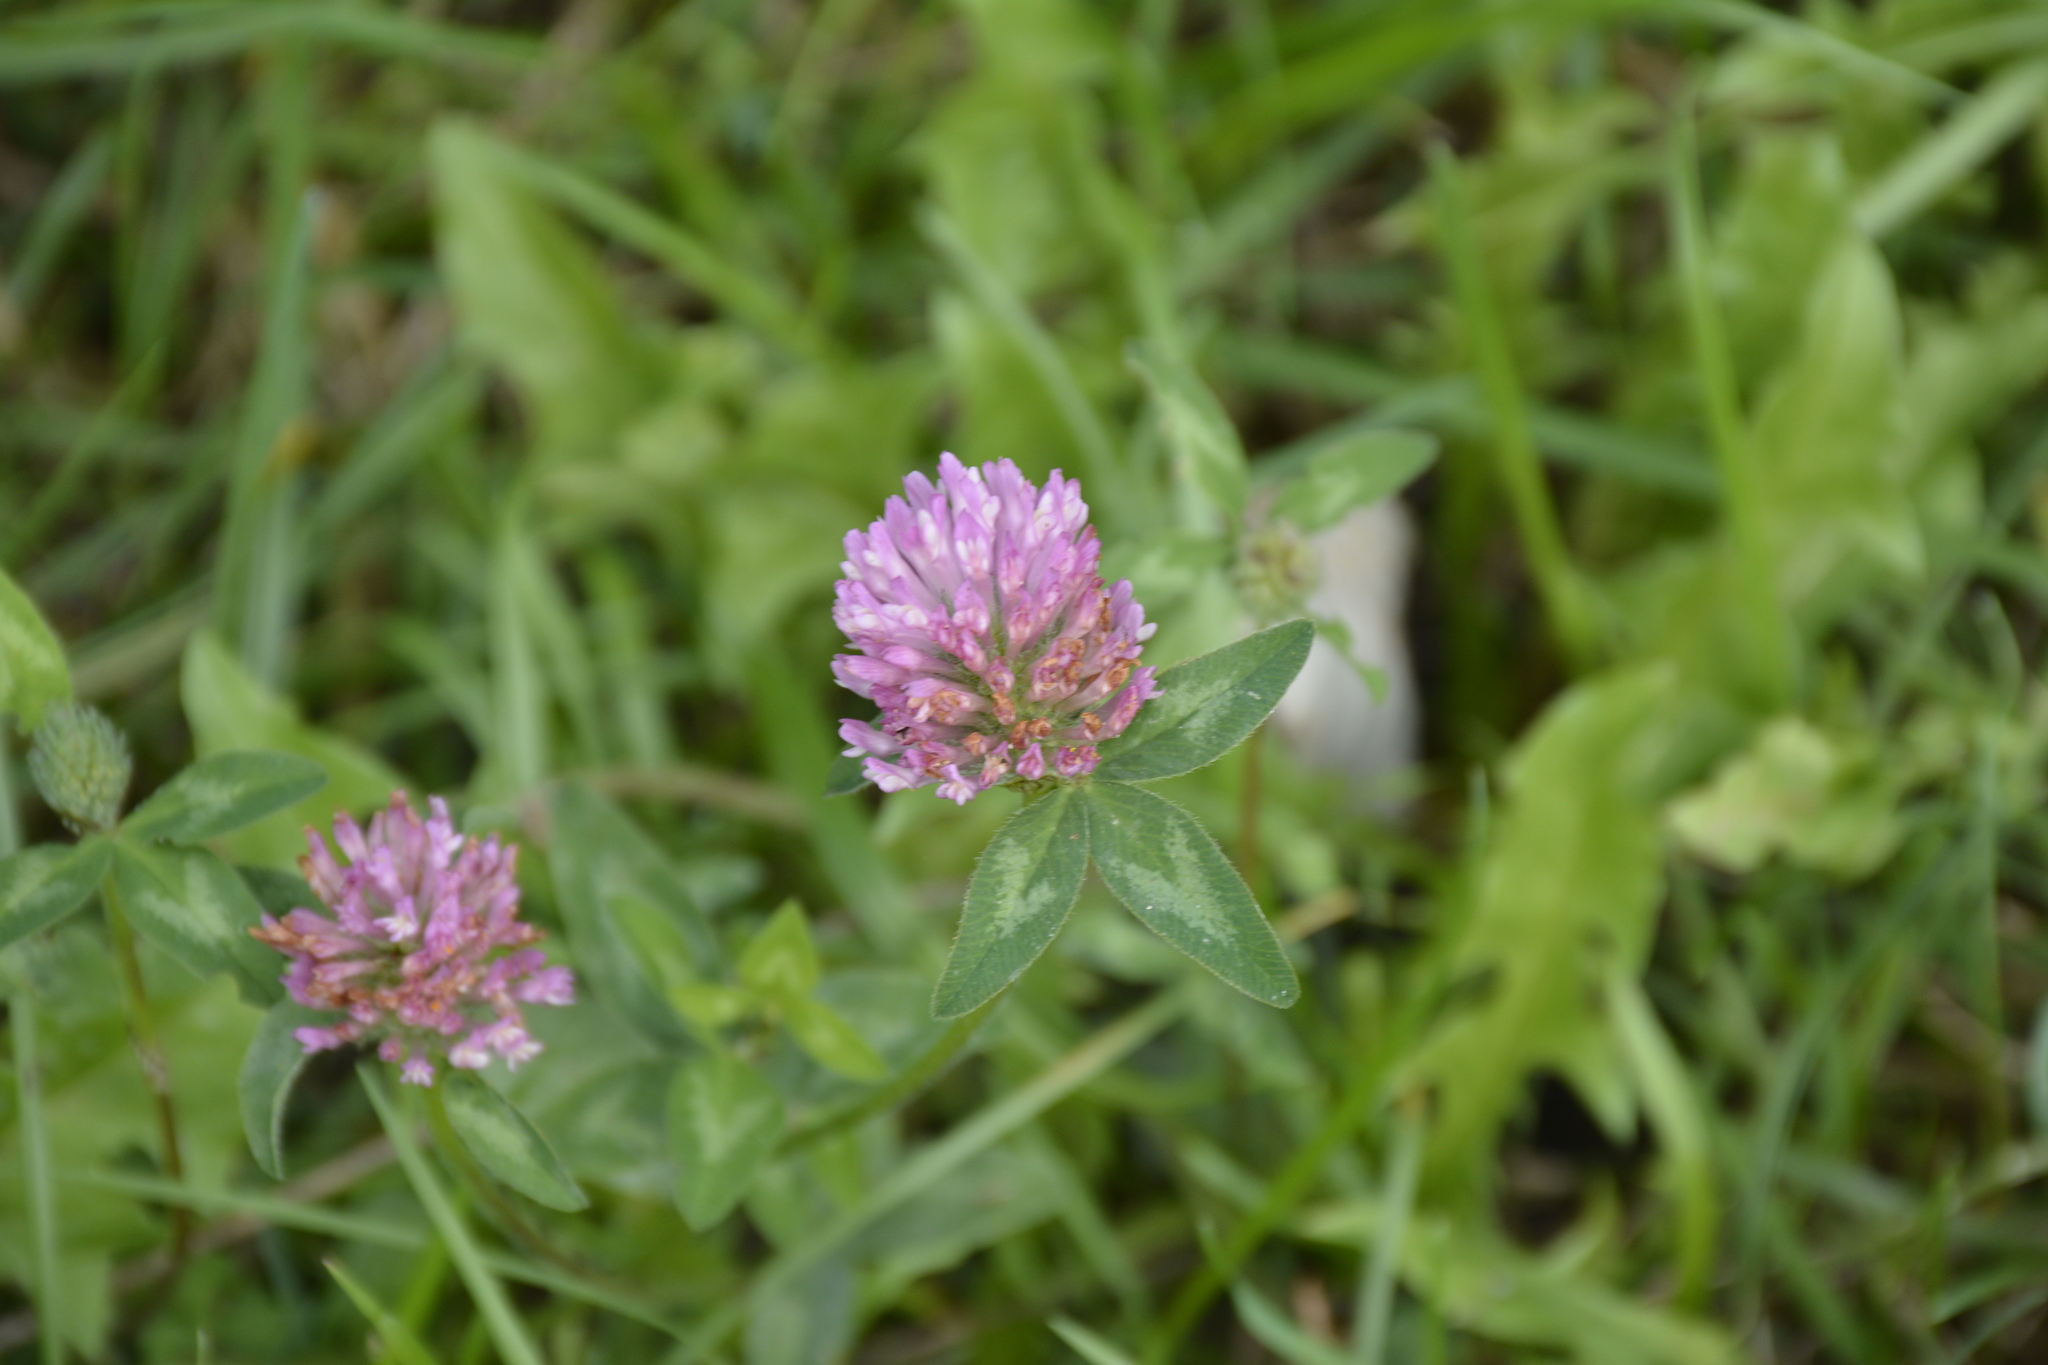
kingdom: Plantae
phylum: Tracheophyta
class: Magnoliopsida
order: Fabales
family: Fabaceae
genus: Trifolium
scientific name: Trifolium pratense
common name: Red clover
